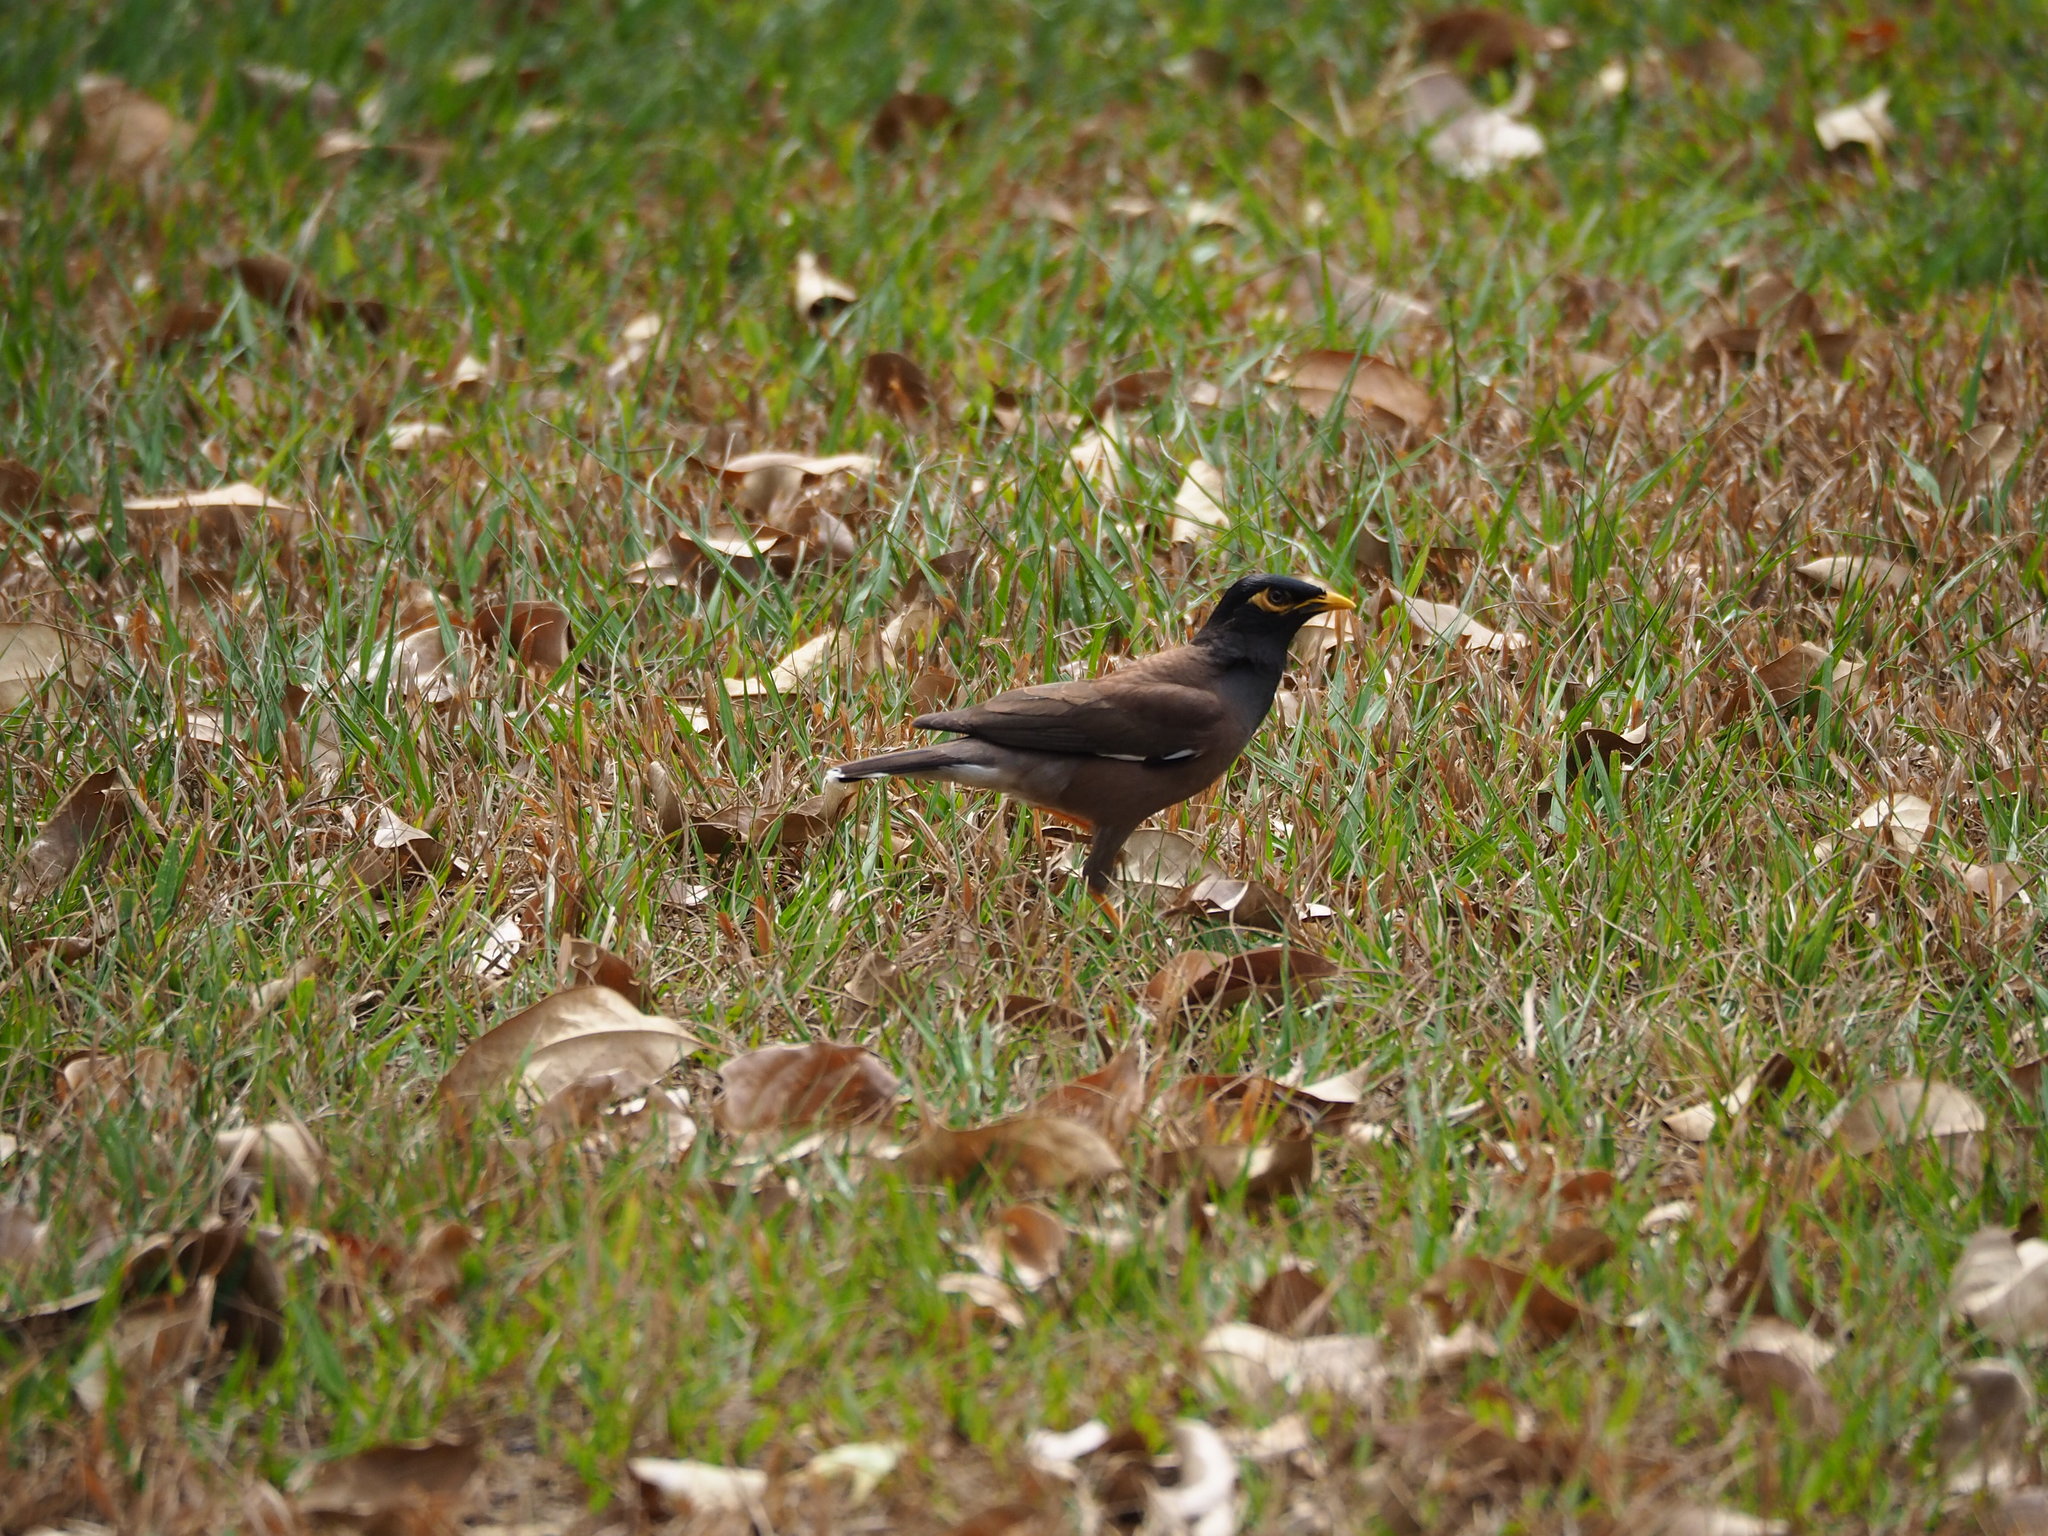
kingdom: Animalia
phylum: Chordata
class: Aves
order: Passeriformes
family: Sturnidae
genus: Acridotheres
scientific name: Acridotheres tristis
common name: Common myna
